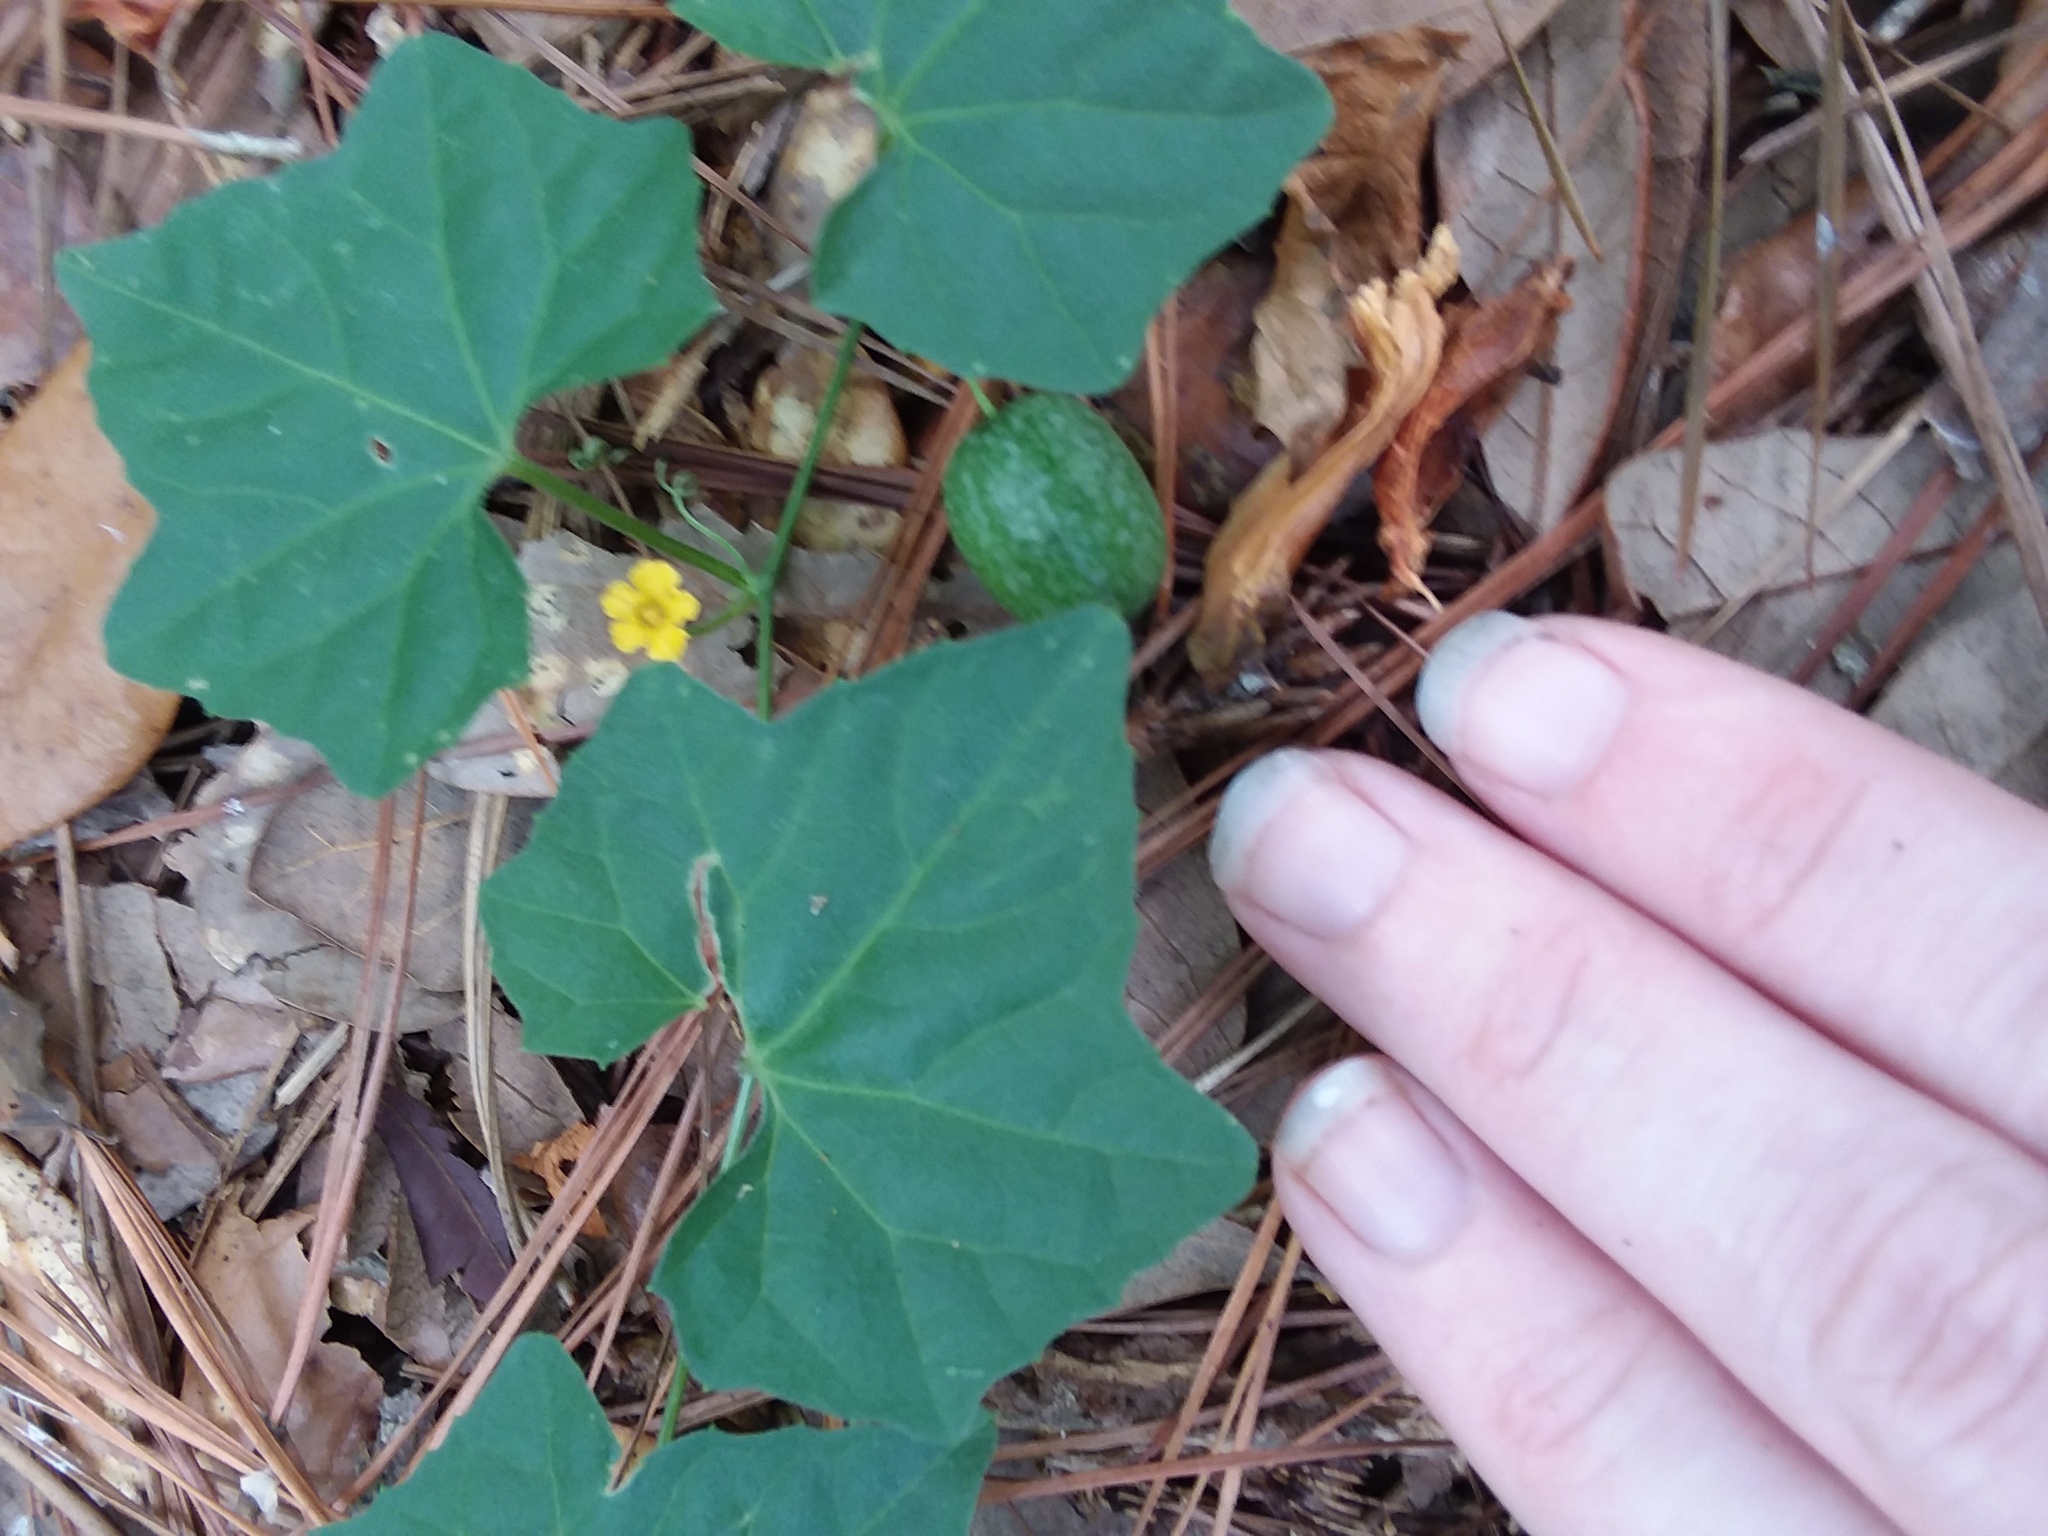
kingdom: Plantae
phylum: Tracheophyta
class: Magnoliopsida
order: Cucurbitales
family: Cucurbitaceae
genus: Melothria
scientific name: Melothria pendula
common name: Creeping-cucumber
